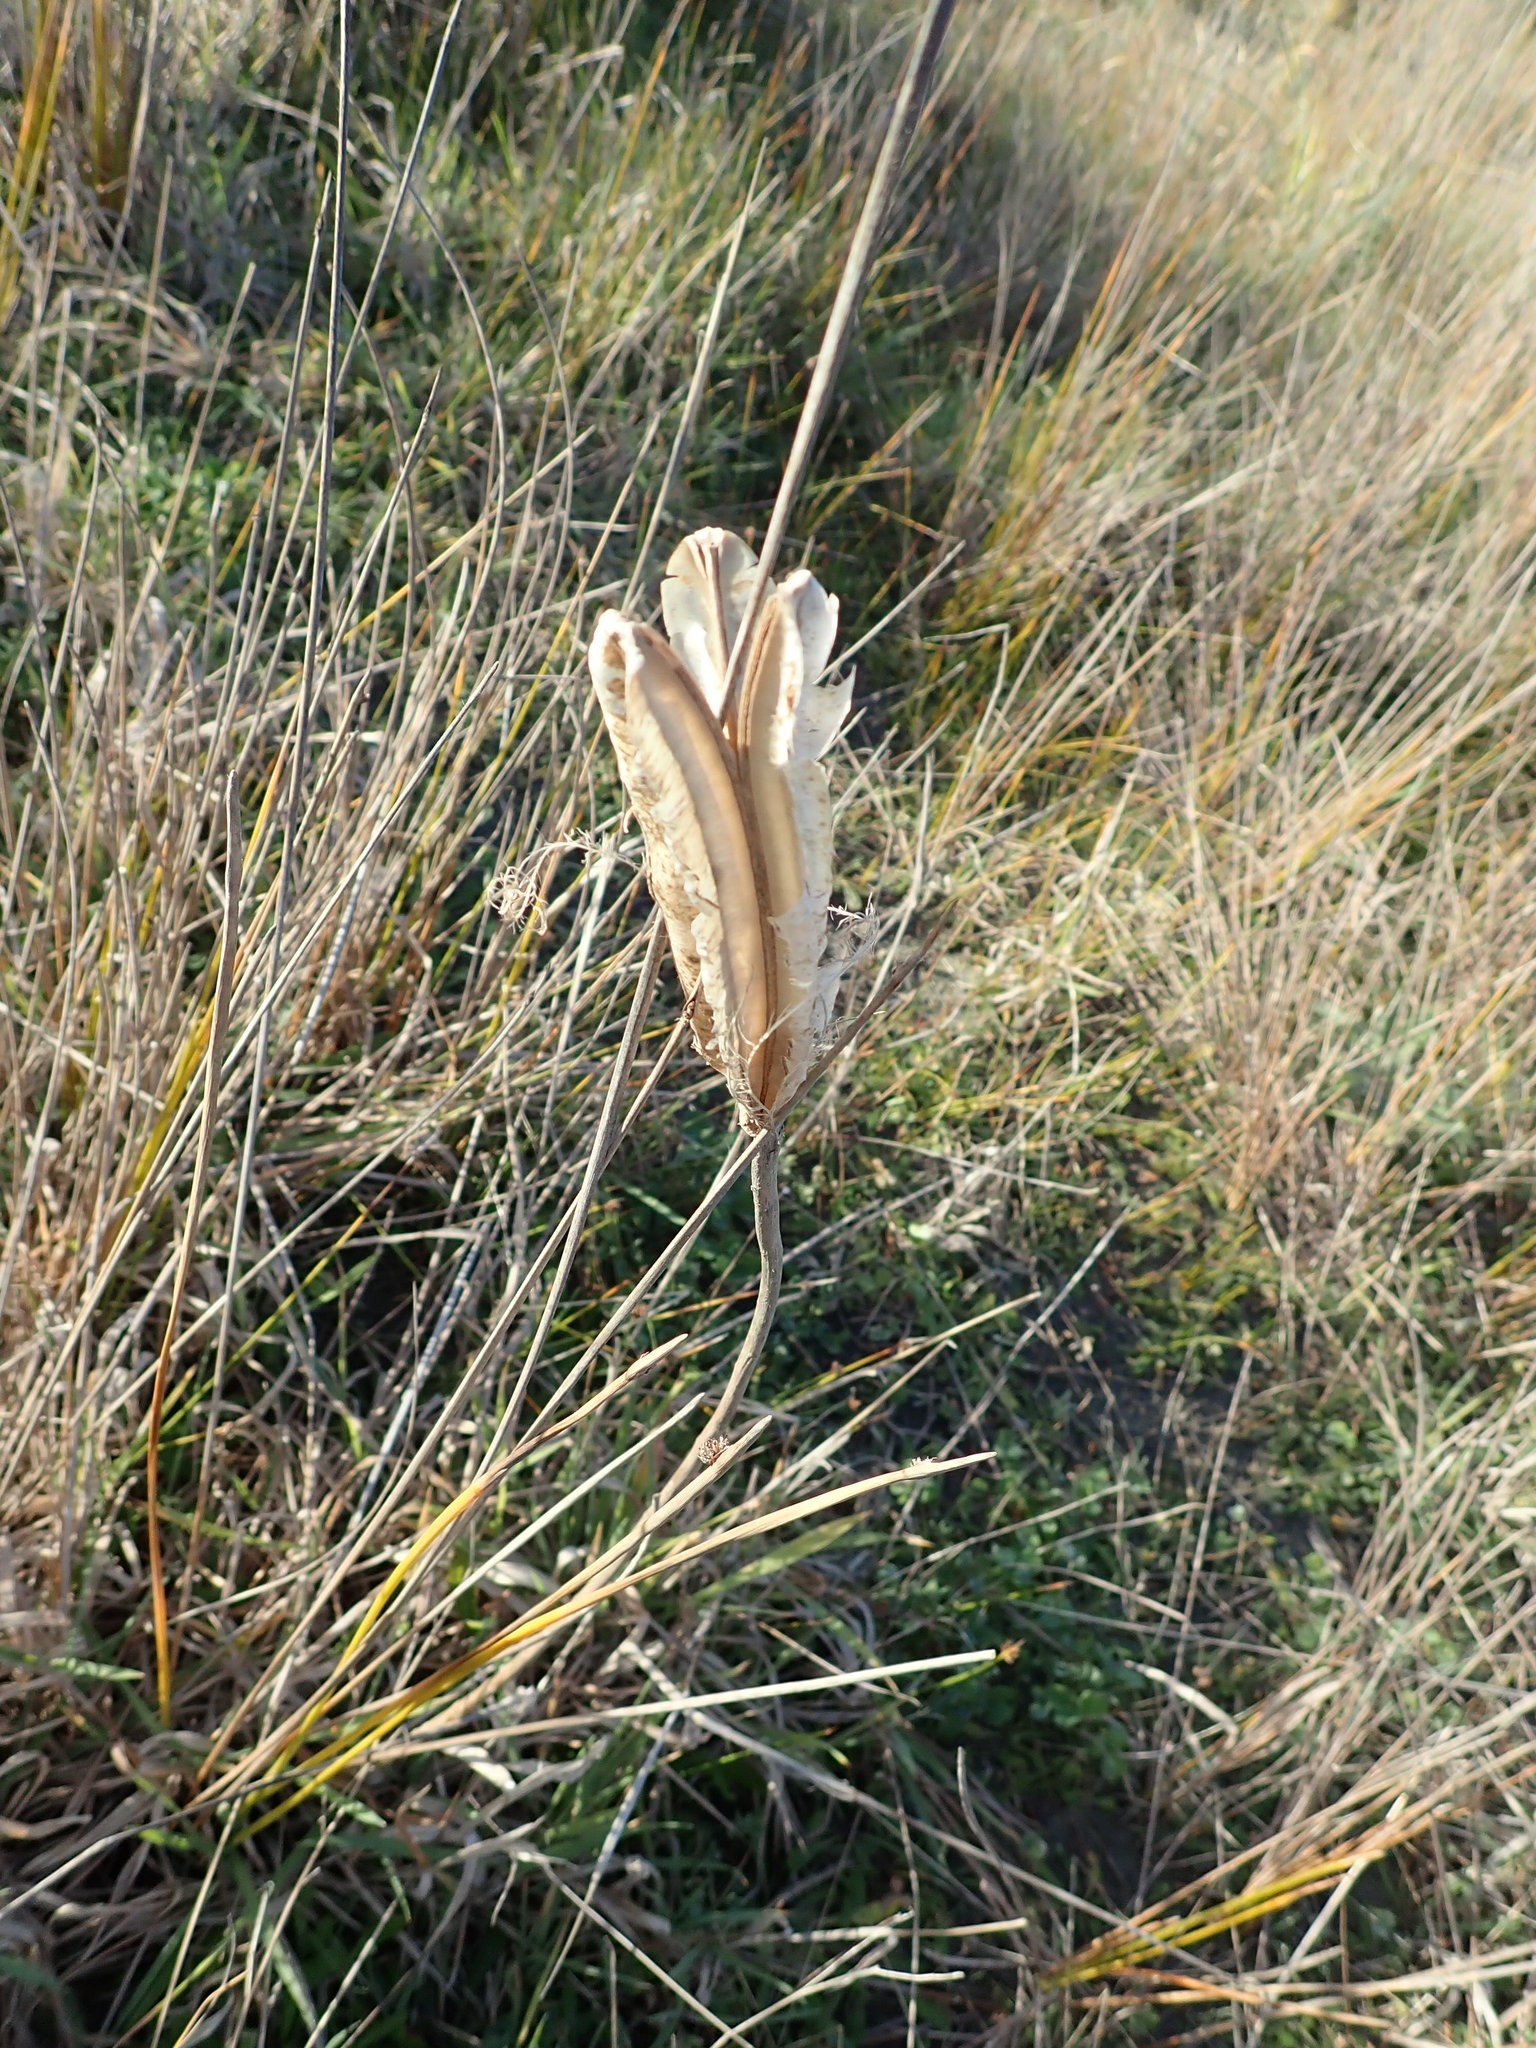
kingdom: Plantae
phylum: Tracheophyta
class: Liliopsida
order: Liliales
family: Liliaceae
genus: Lilium
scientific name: Lilium formosanum
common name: Formosa lily
